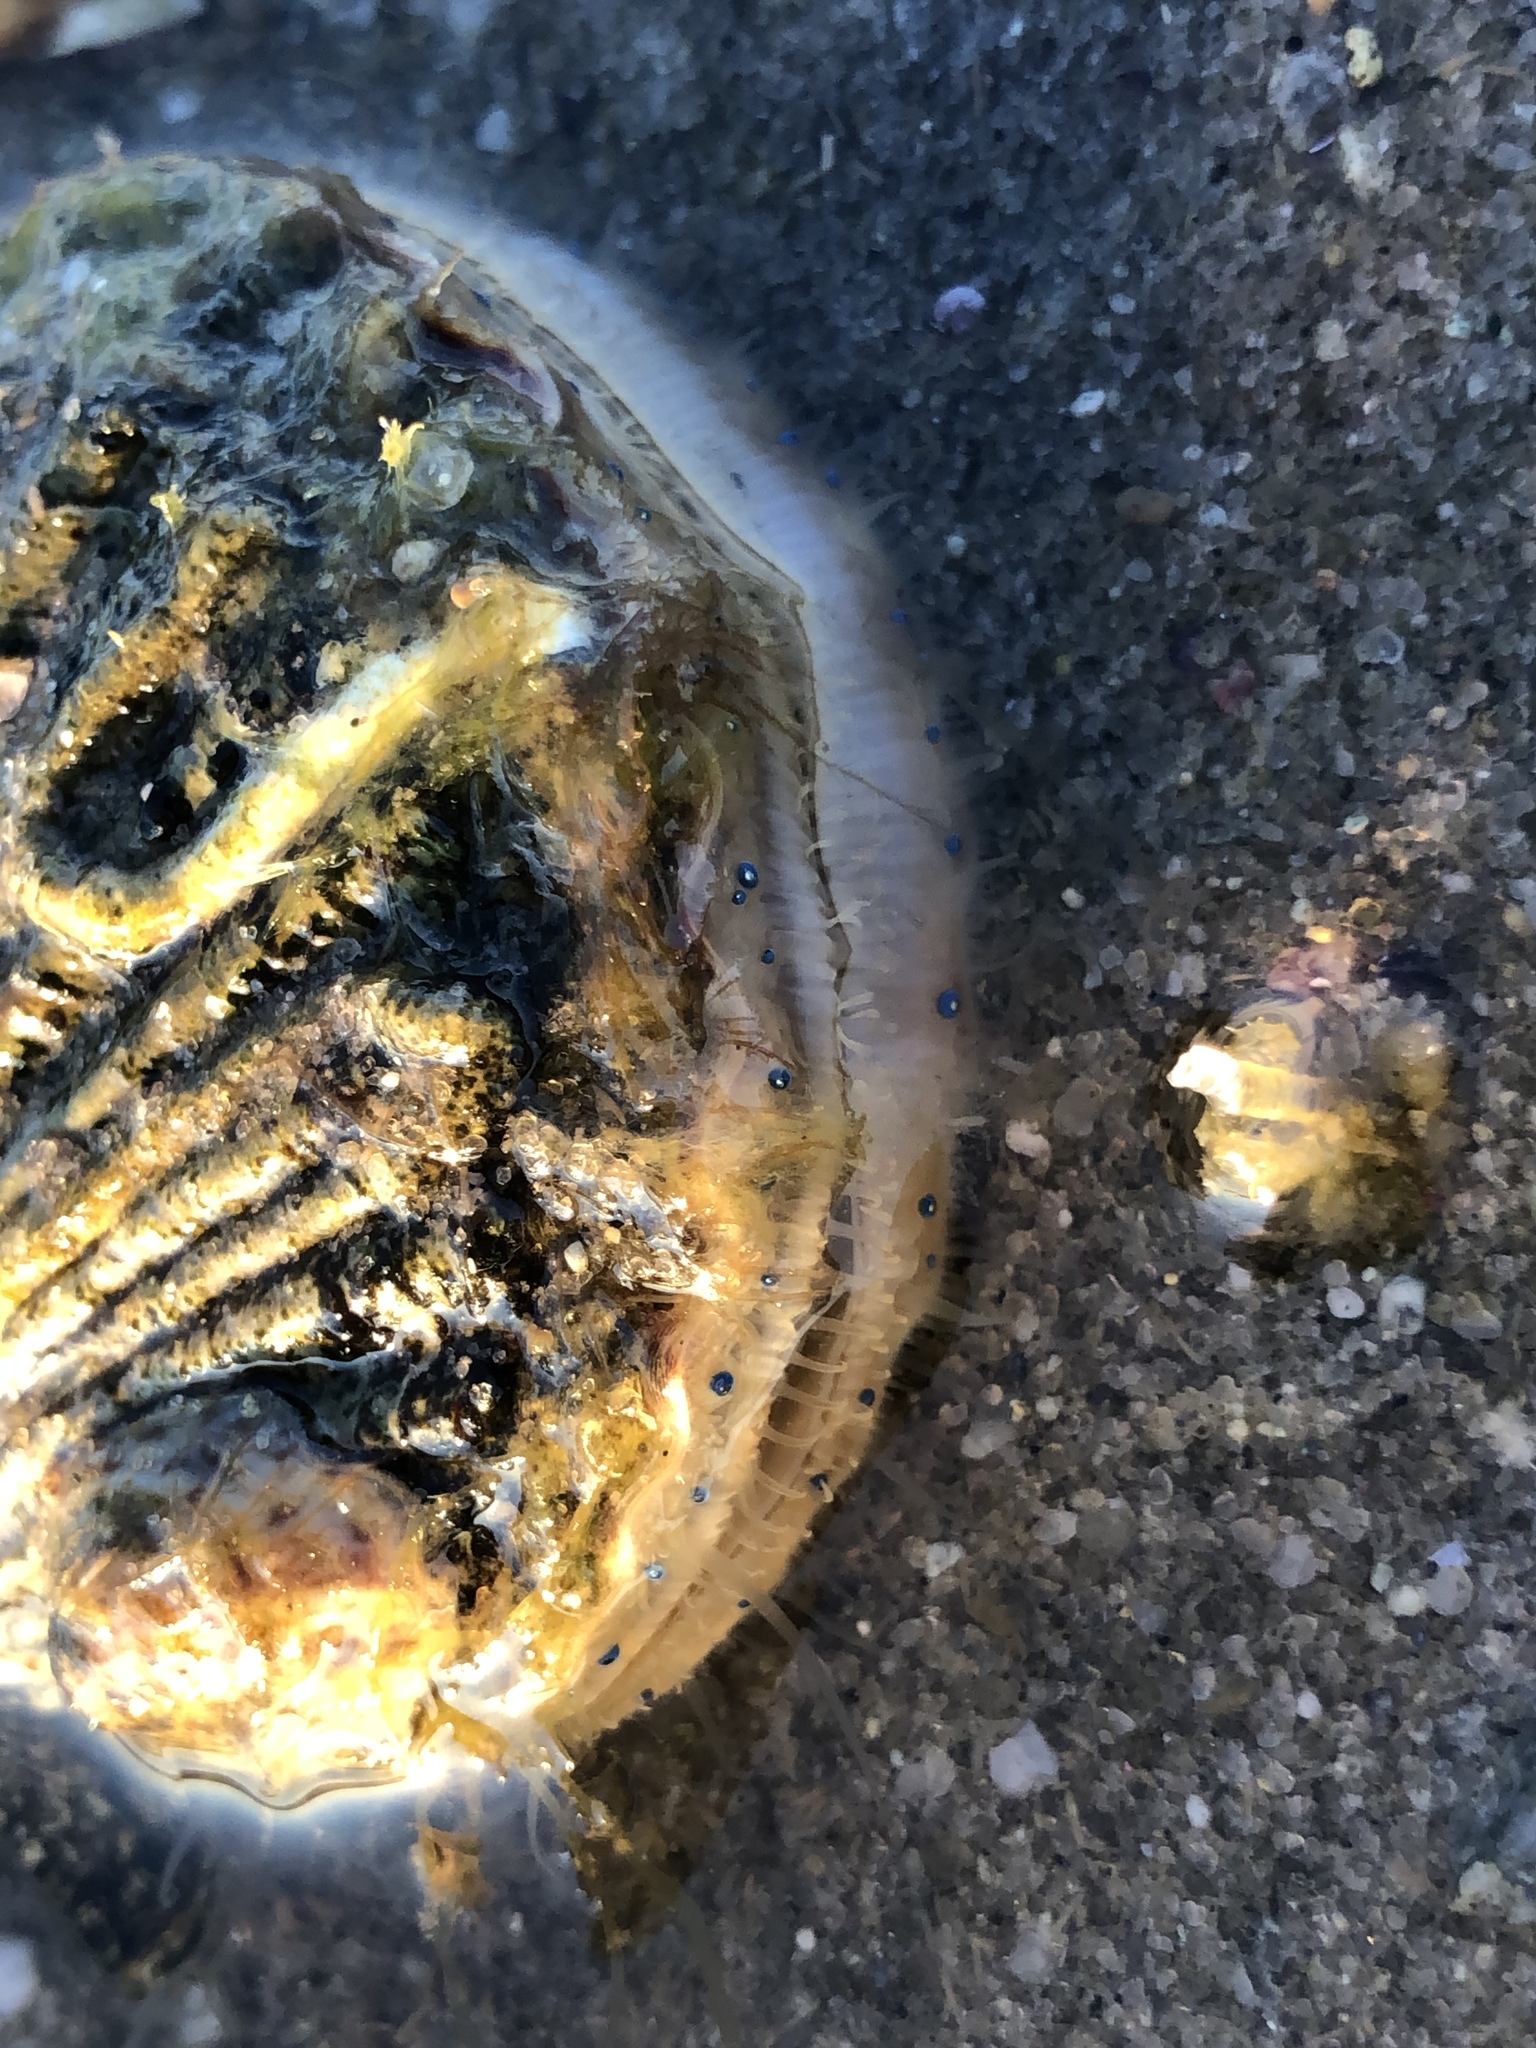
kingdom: Animalia
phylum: Mollusca
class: Bivalvia
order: Pectinida
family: Pectinidae
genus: Argopecten
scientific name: Argopecten irradians
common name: Atlantic bay scallop
